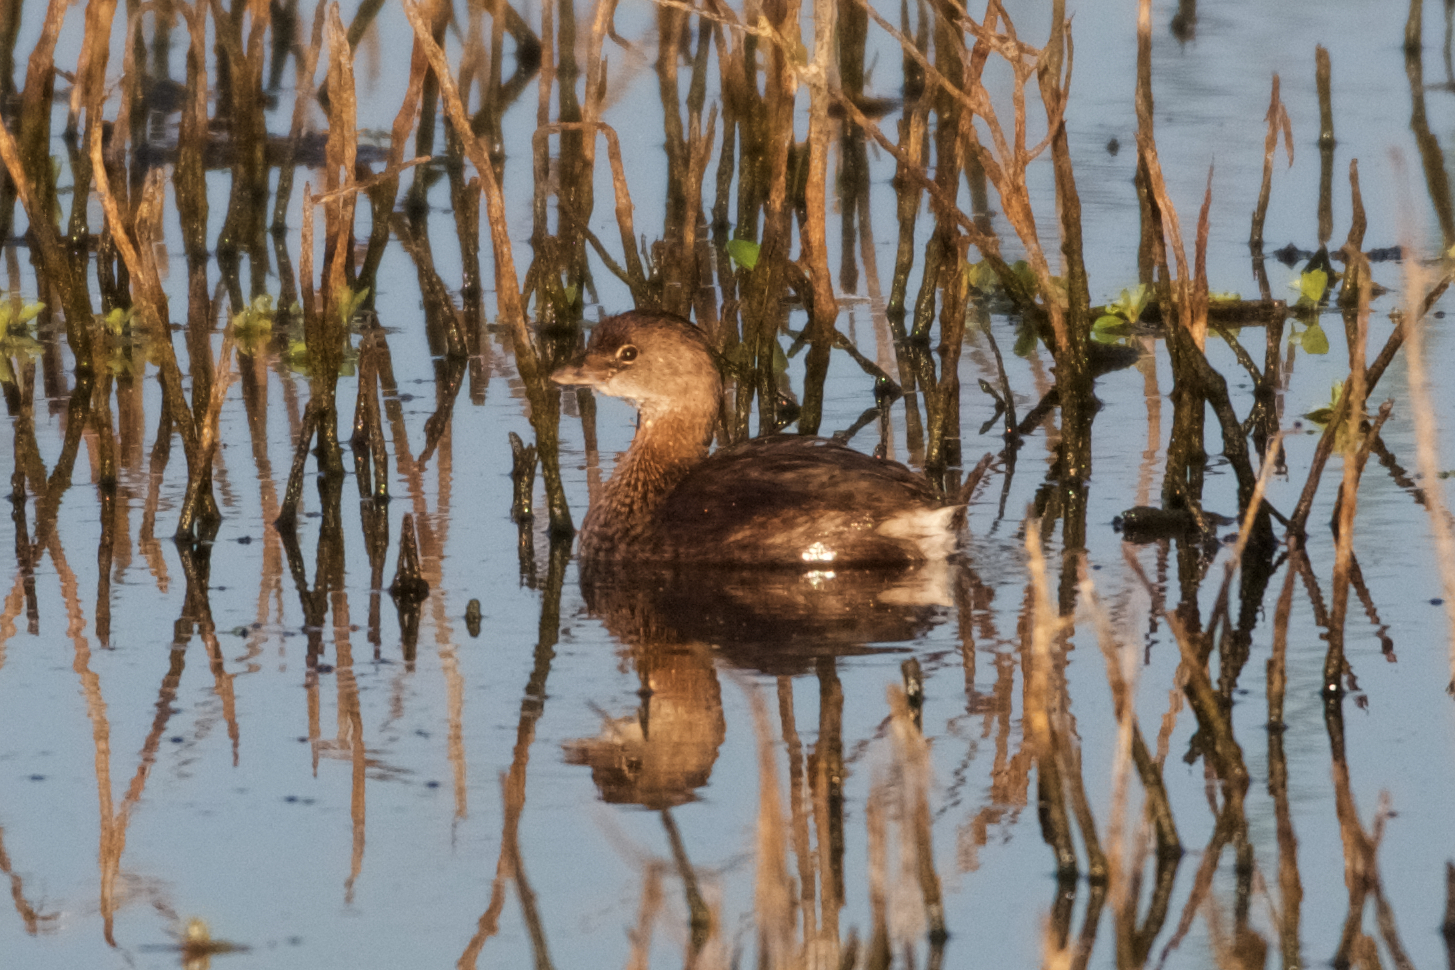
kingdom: Animalia
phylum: Chordata
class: Aves
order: Podicipediformes
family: Podicipedidae
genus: Podilymbus
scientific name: Podilymbus podiceps
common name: Pied-billed grebe
